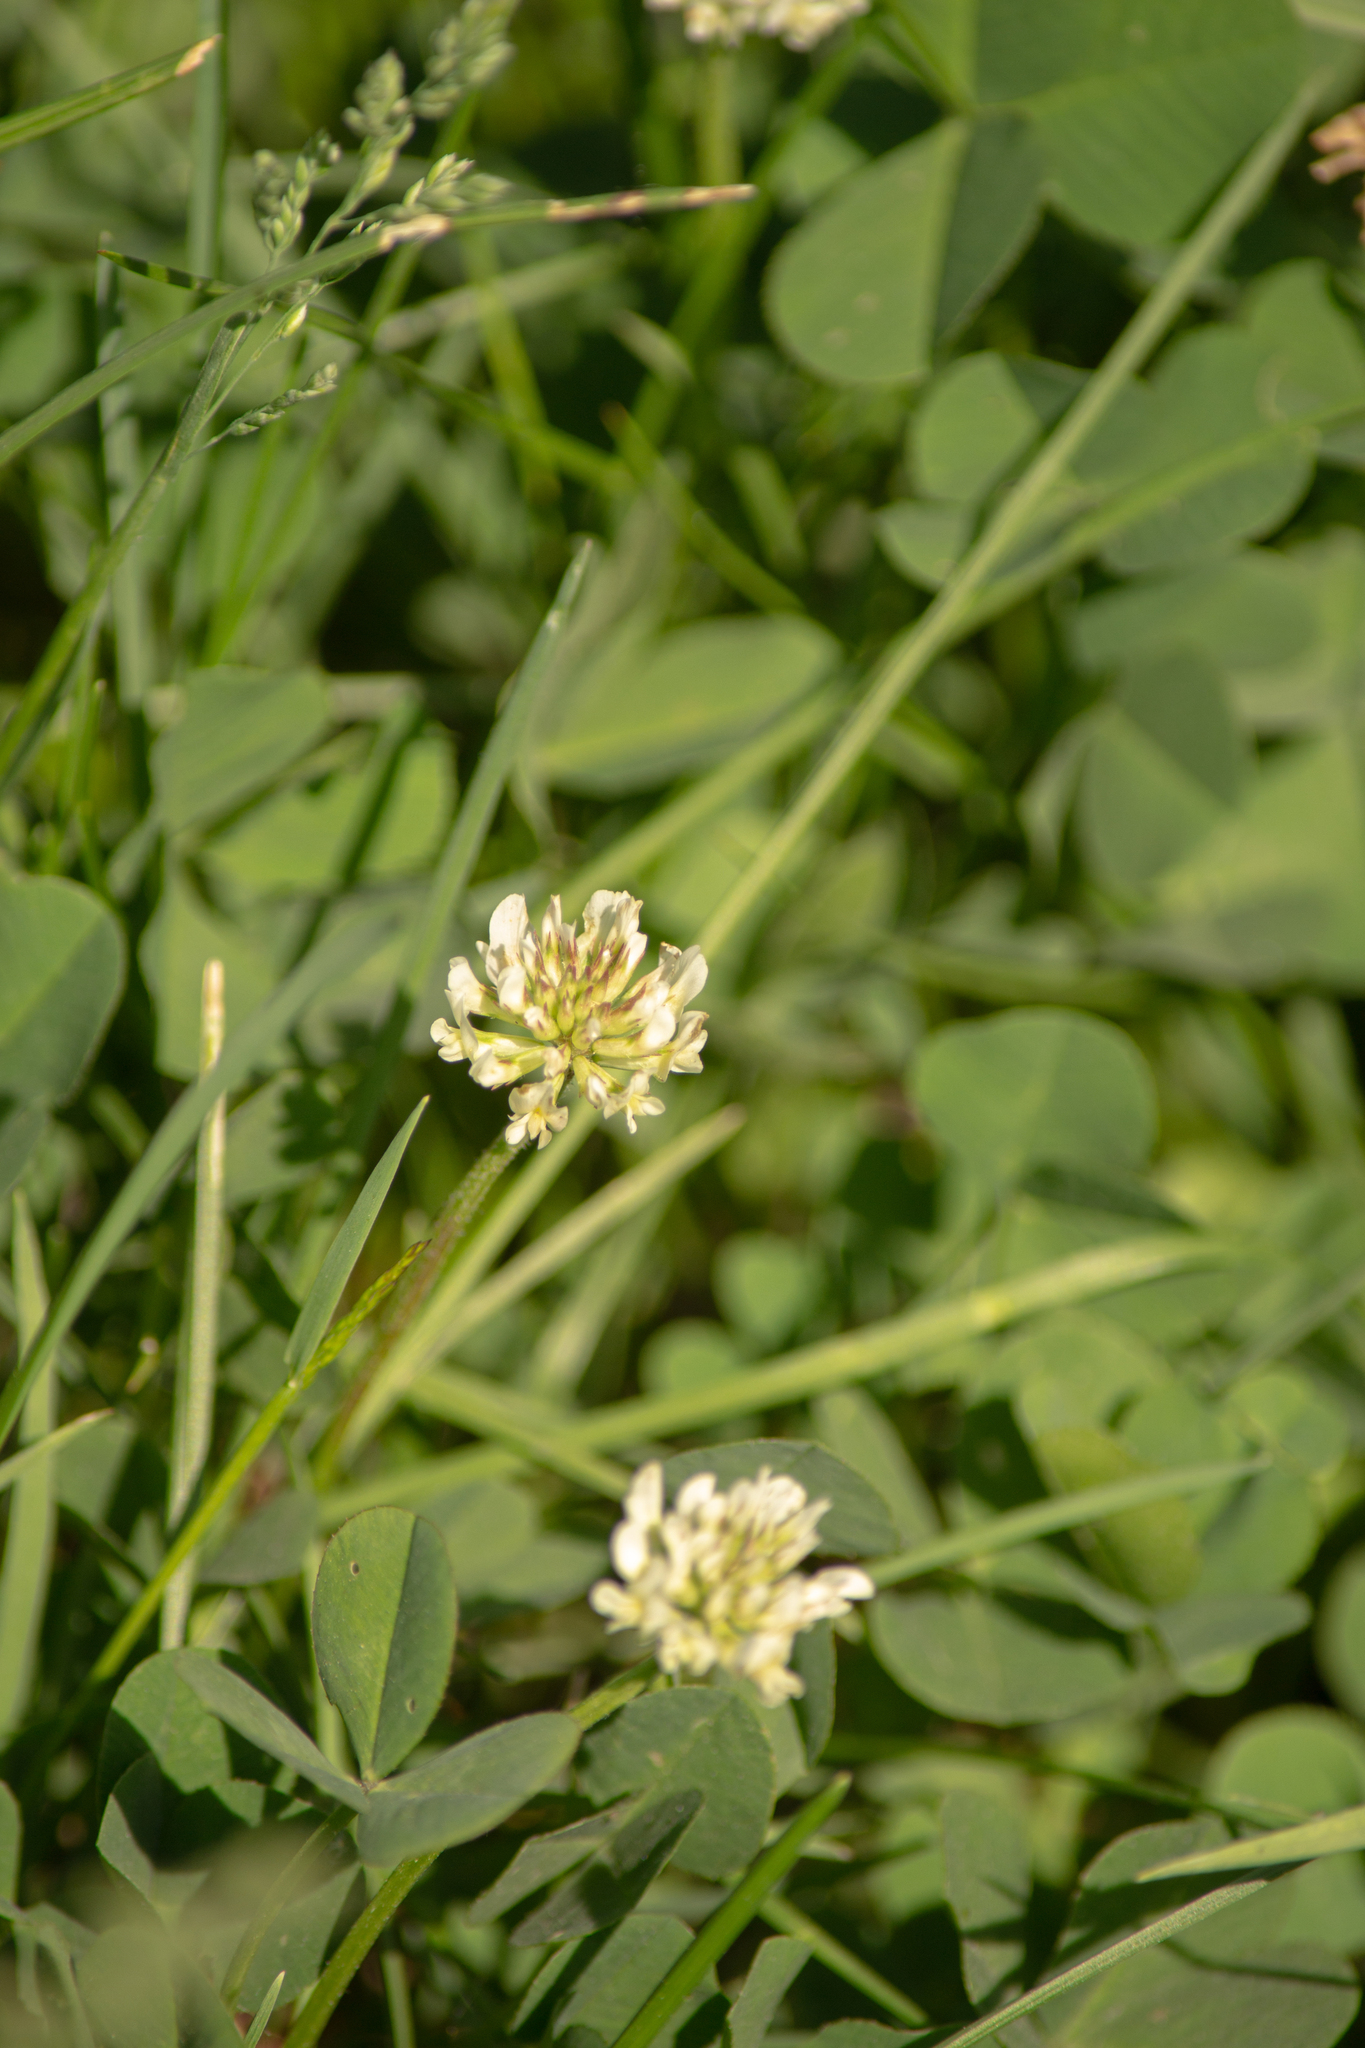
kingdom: Plantae
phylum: Tracheophyta
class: Magnoliopsida
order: Fabales
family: Fabaceae
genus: Trifolium
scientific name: Trifolium repens
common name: White clover
